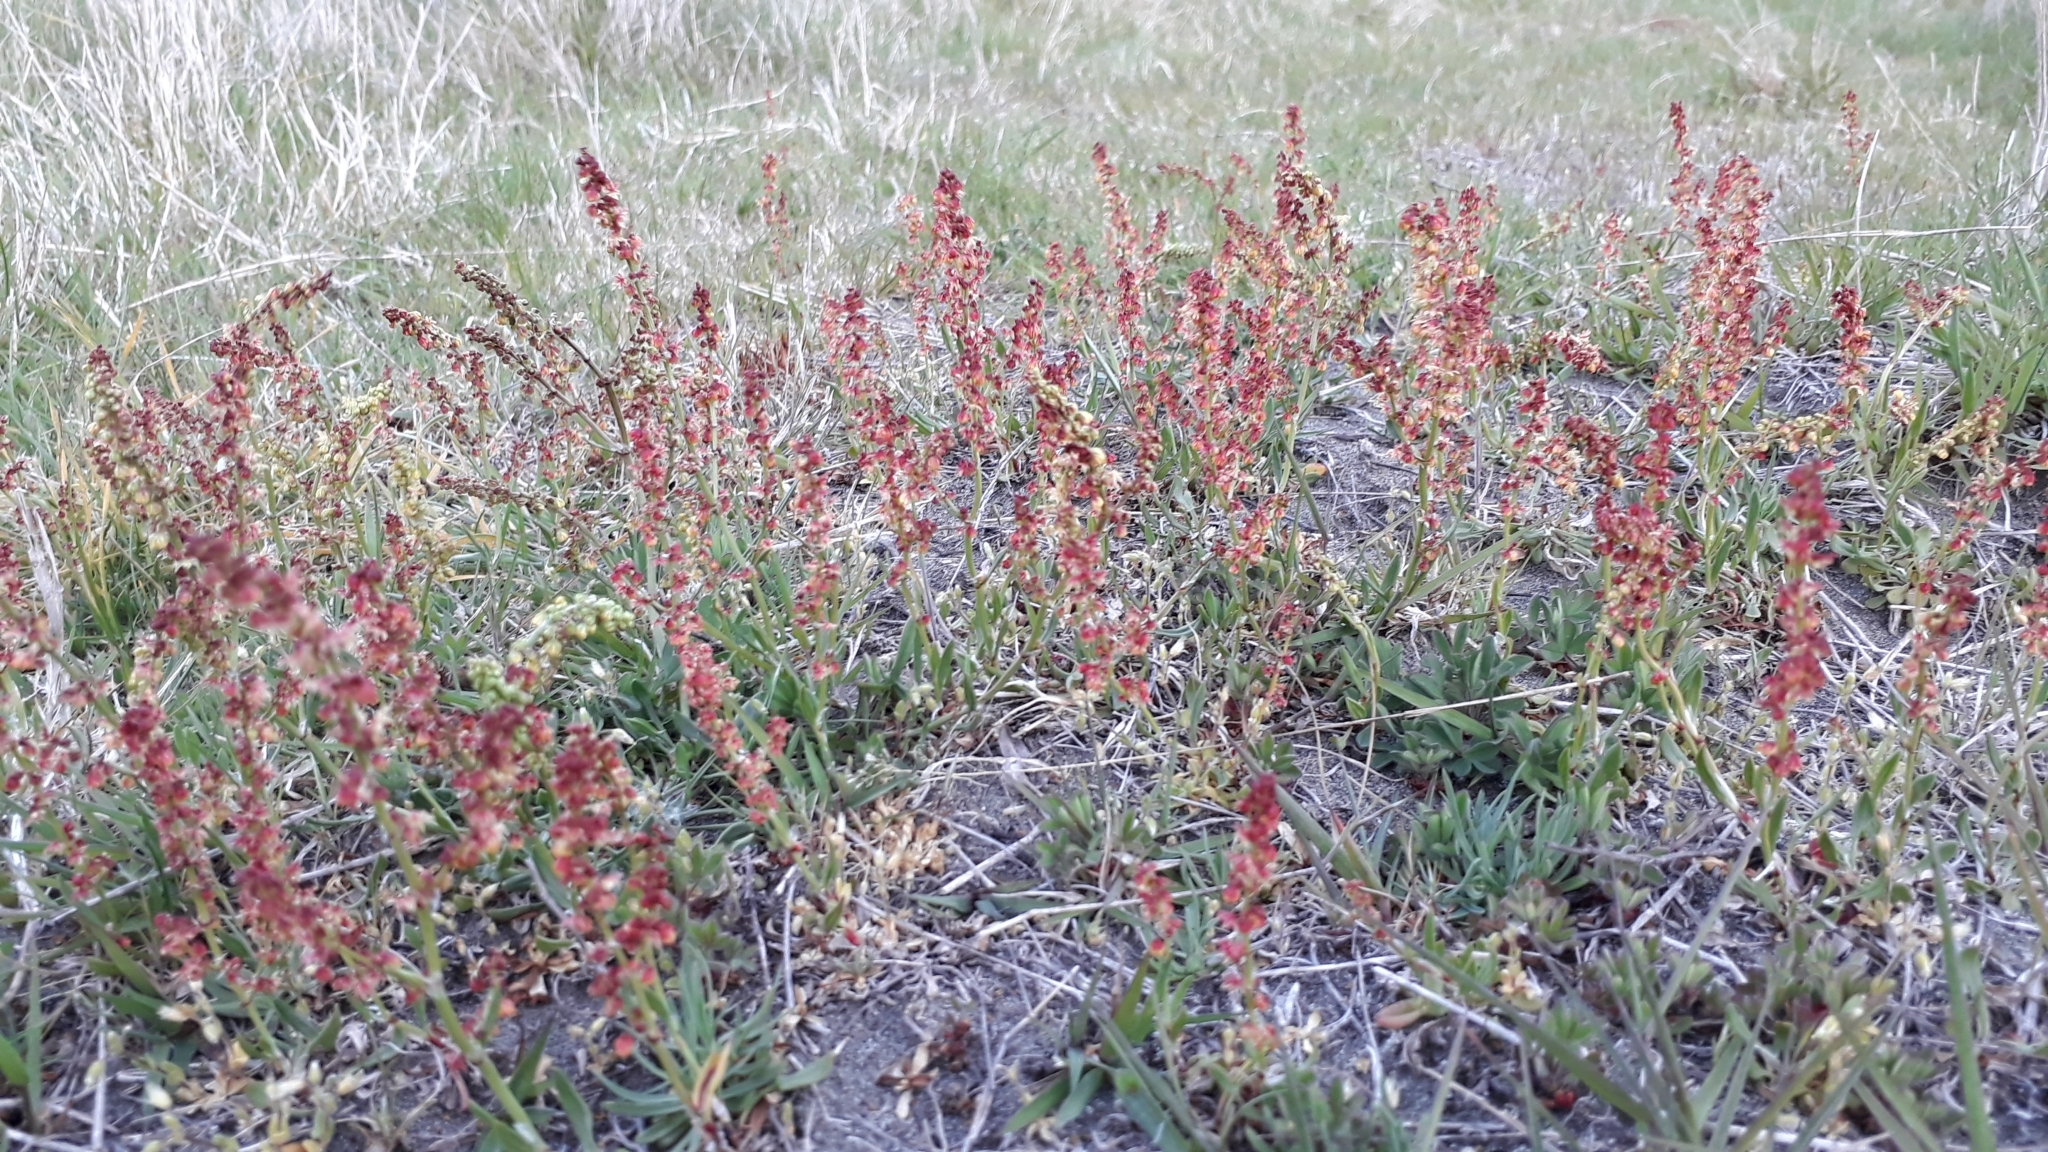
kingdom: Plantae
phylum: Tracheophyta
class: Magnoliopsida
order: Caryophyllales
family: Polygonaceae
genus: Rumex
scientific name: Rumex acetosella
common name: Common sheep sorrel
